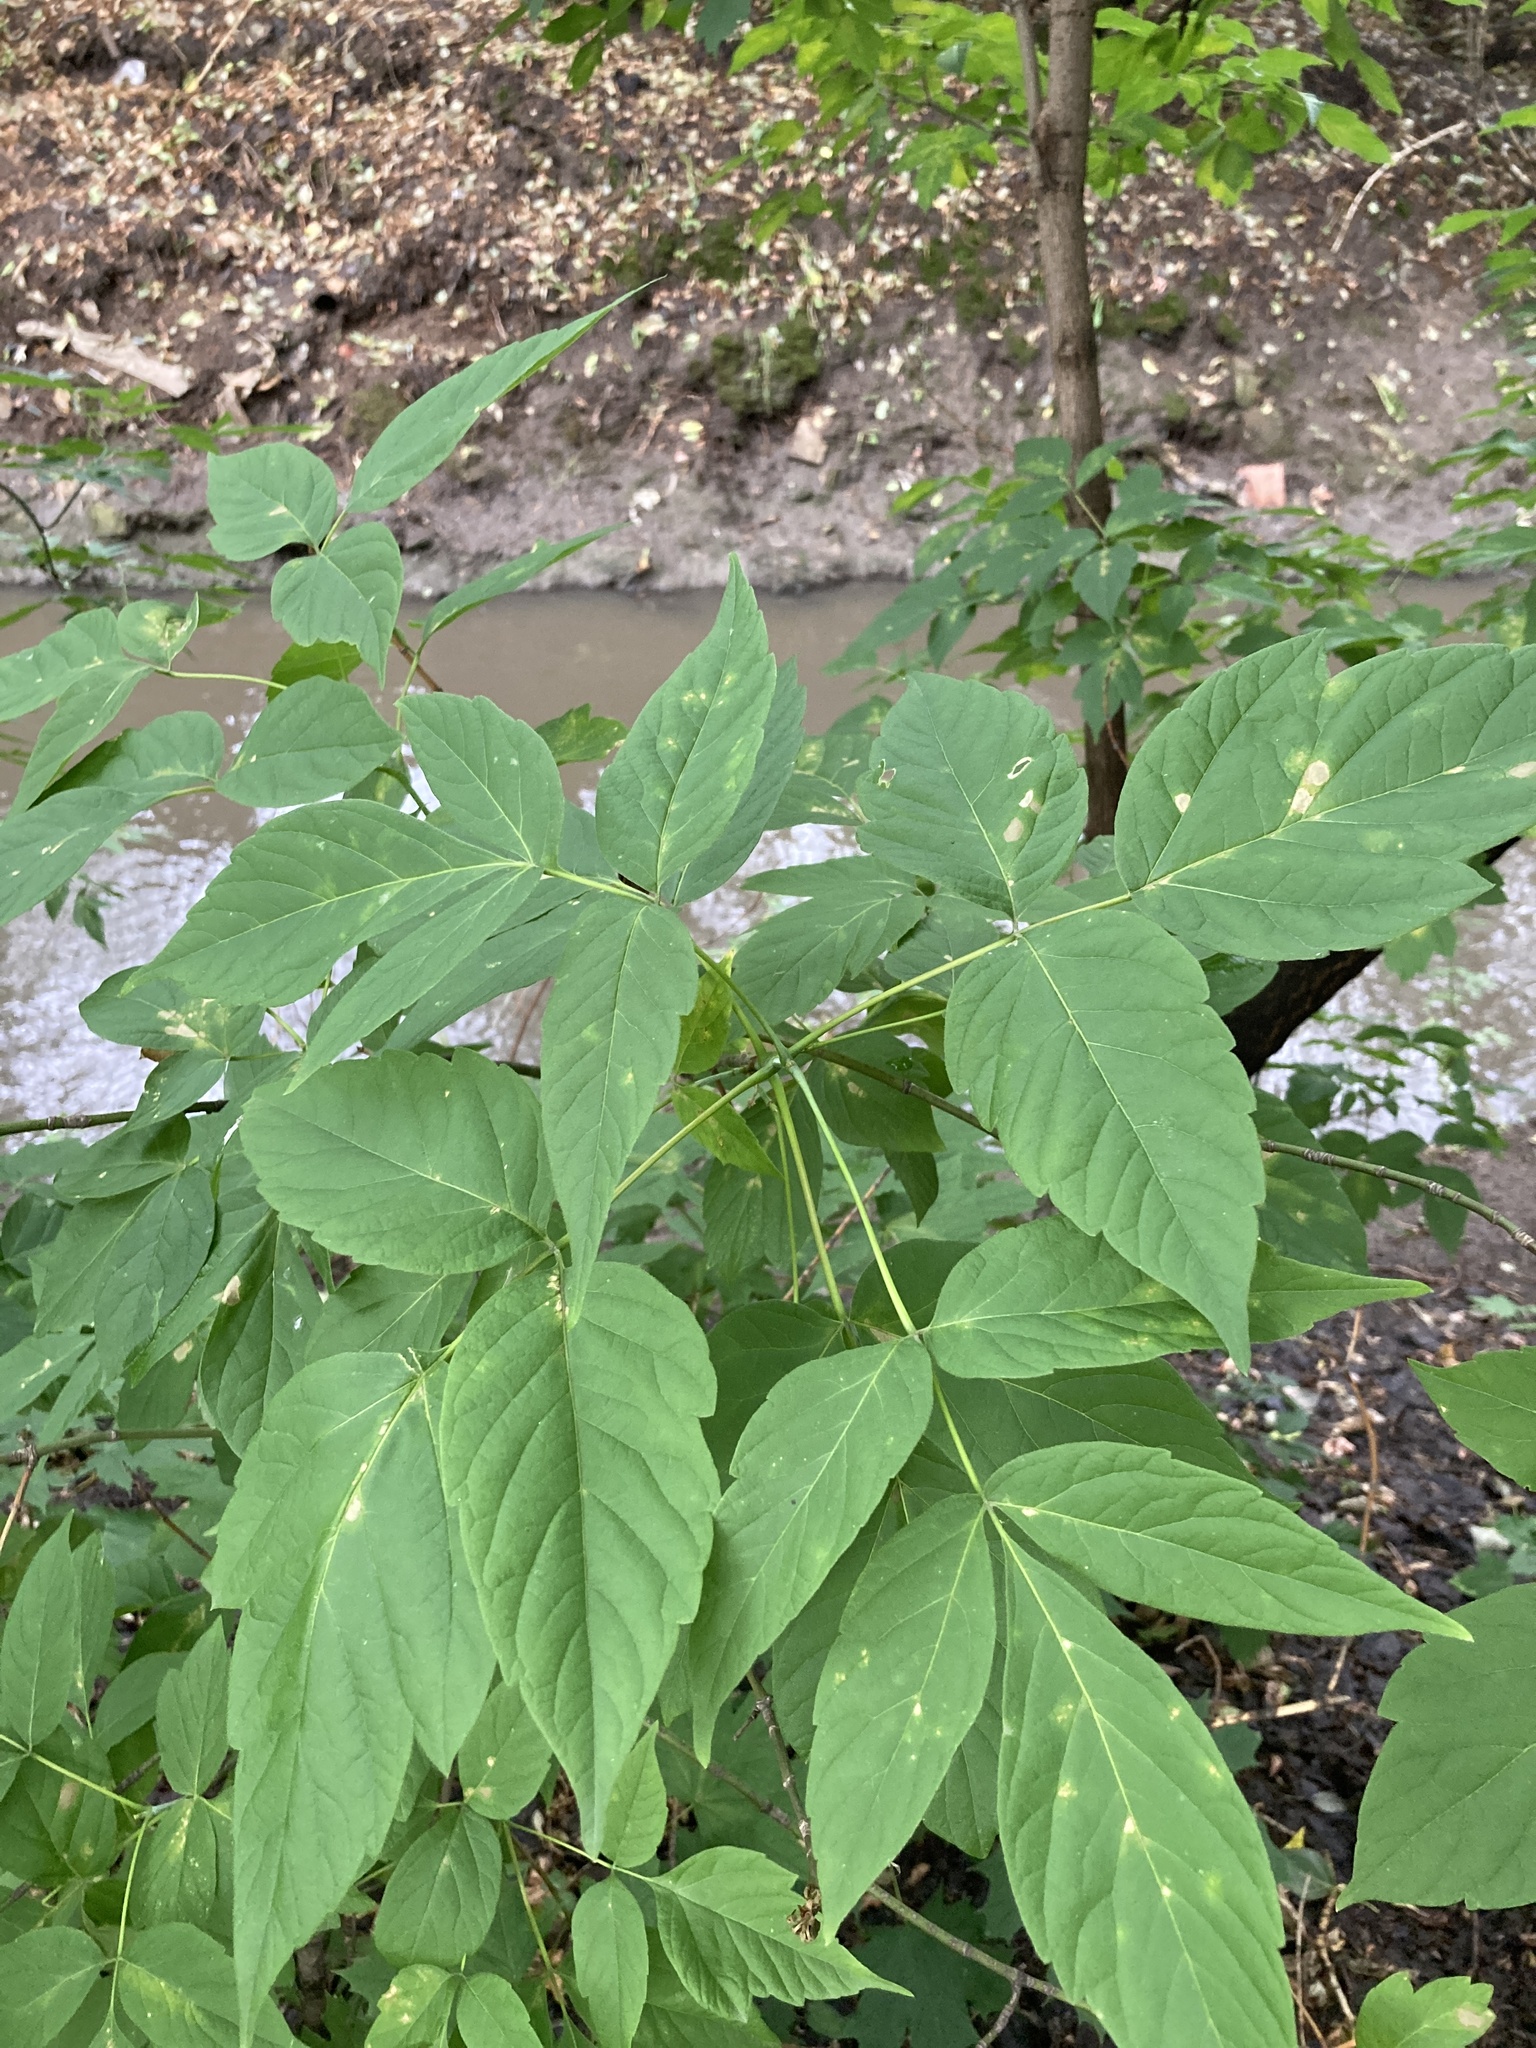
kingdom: Plantae
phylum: Tracheophyta
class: Magnoliopsida
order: Sapindales
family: Sapindaceae
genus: Acer
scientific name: Acer negundo
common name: Ashleaf maple
